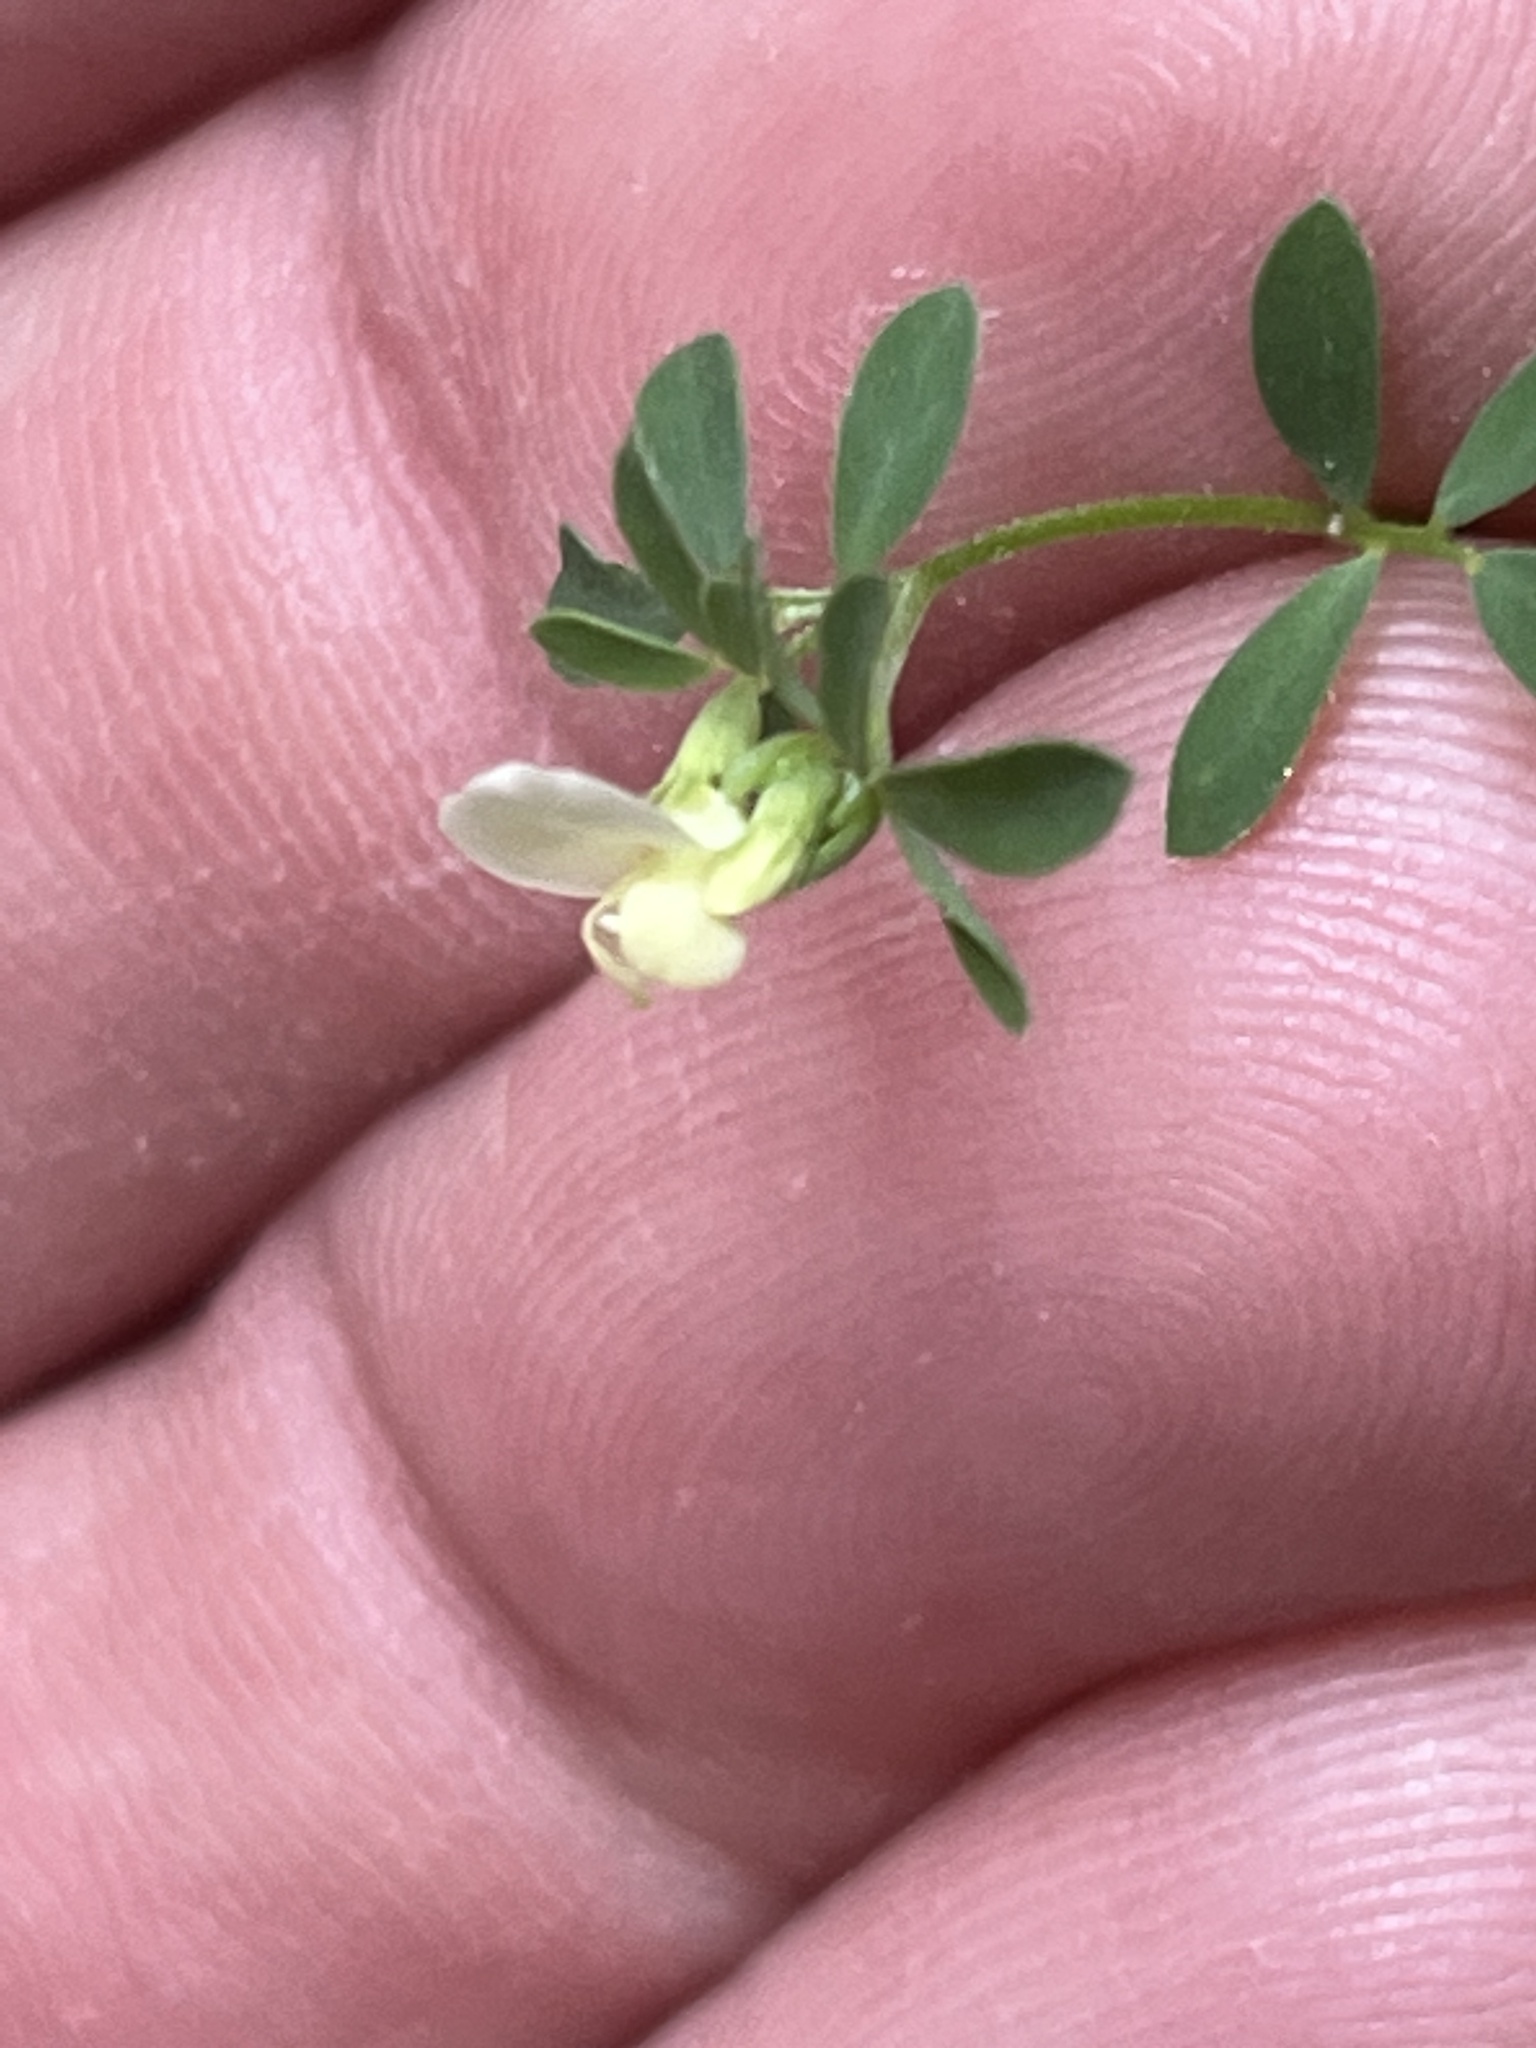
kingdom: Plantae
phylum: Tracheophyta
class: Magnoliopsida
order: Fabales
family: Fabaceae
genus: Acmispon
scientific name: Acmispon parviflorus
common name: Desert deer-vetch
